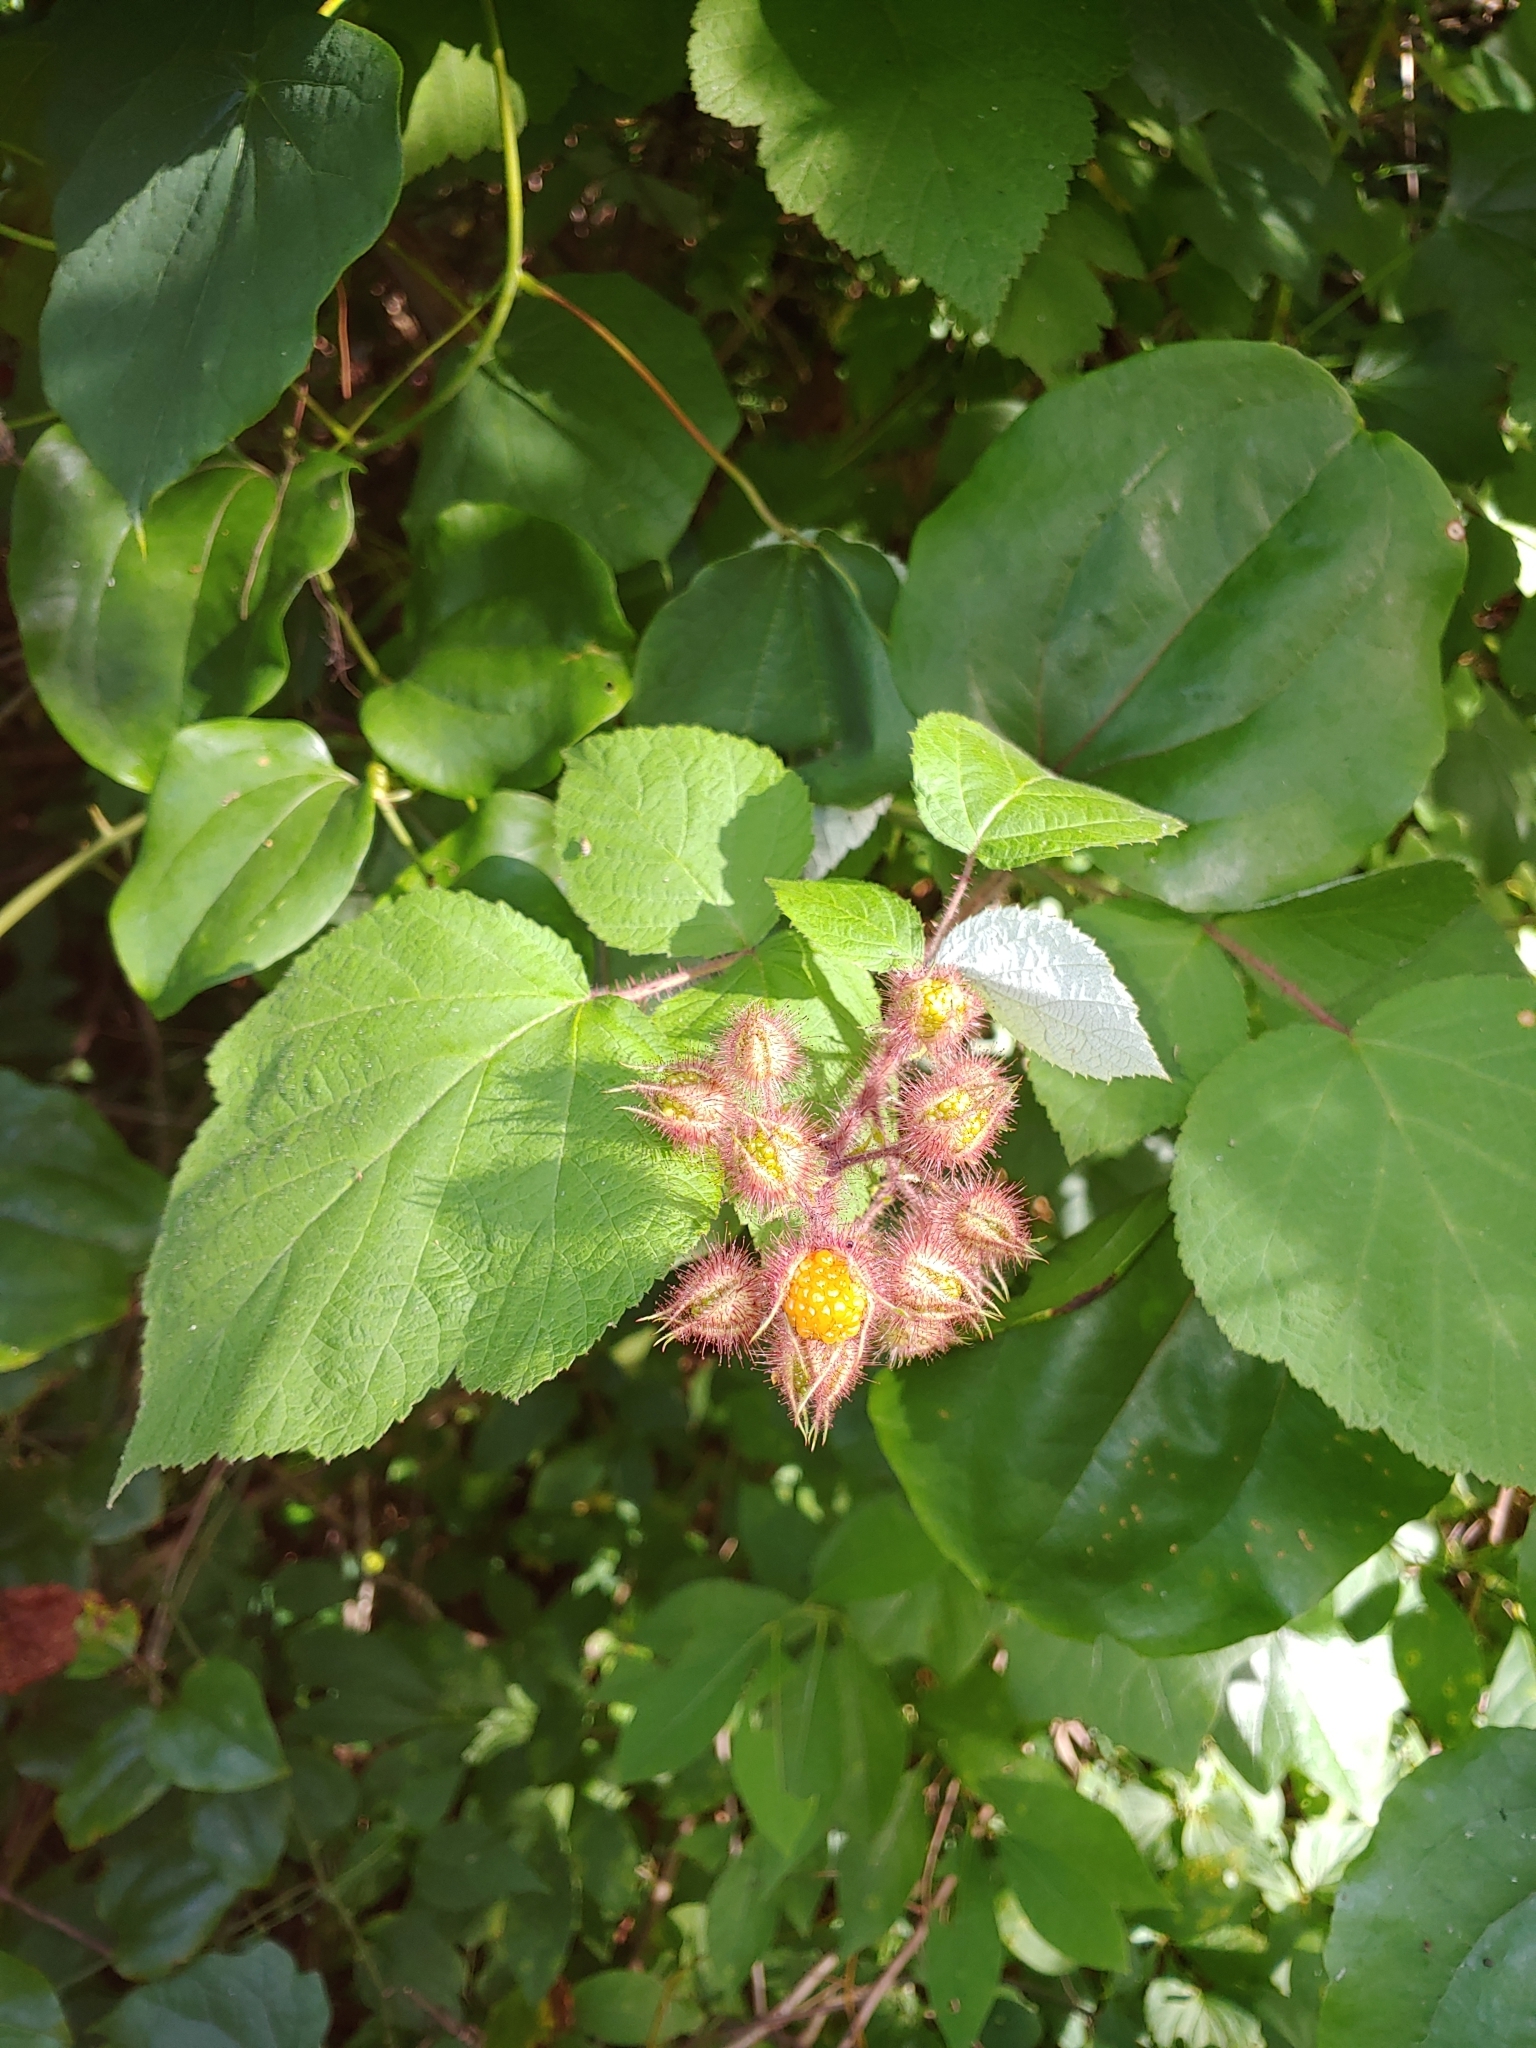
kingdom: Plantae
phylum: Tracheophyta
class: Magnoliopsida
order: Rosales
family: Rosaceae
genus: Rubus
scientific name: Rubus phoenicolasius
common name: Japanese wineberry
